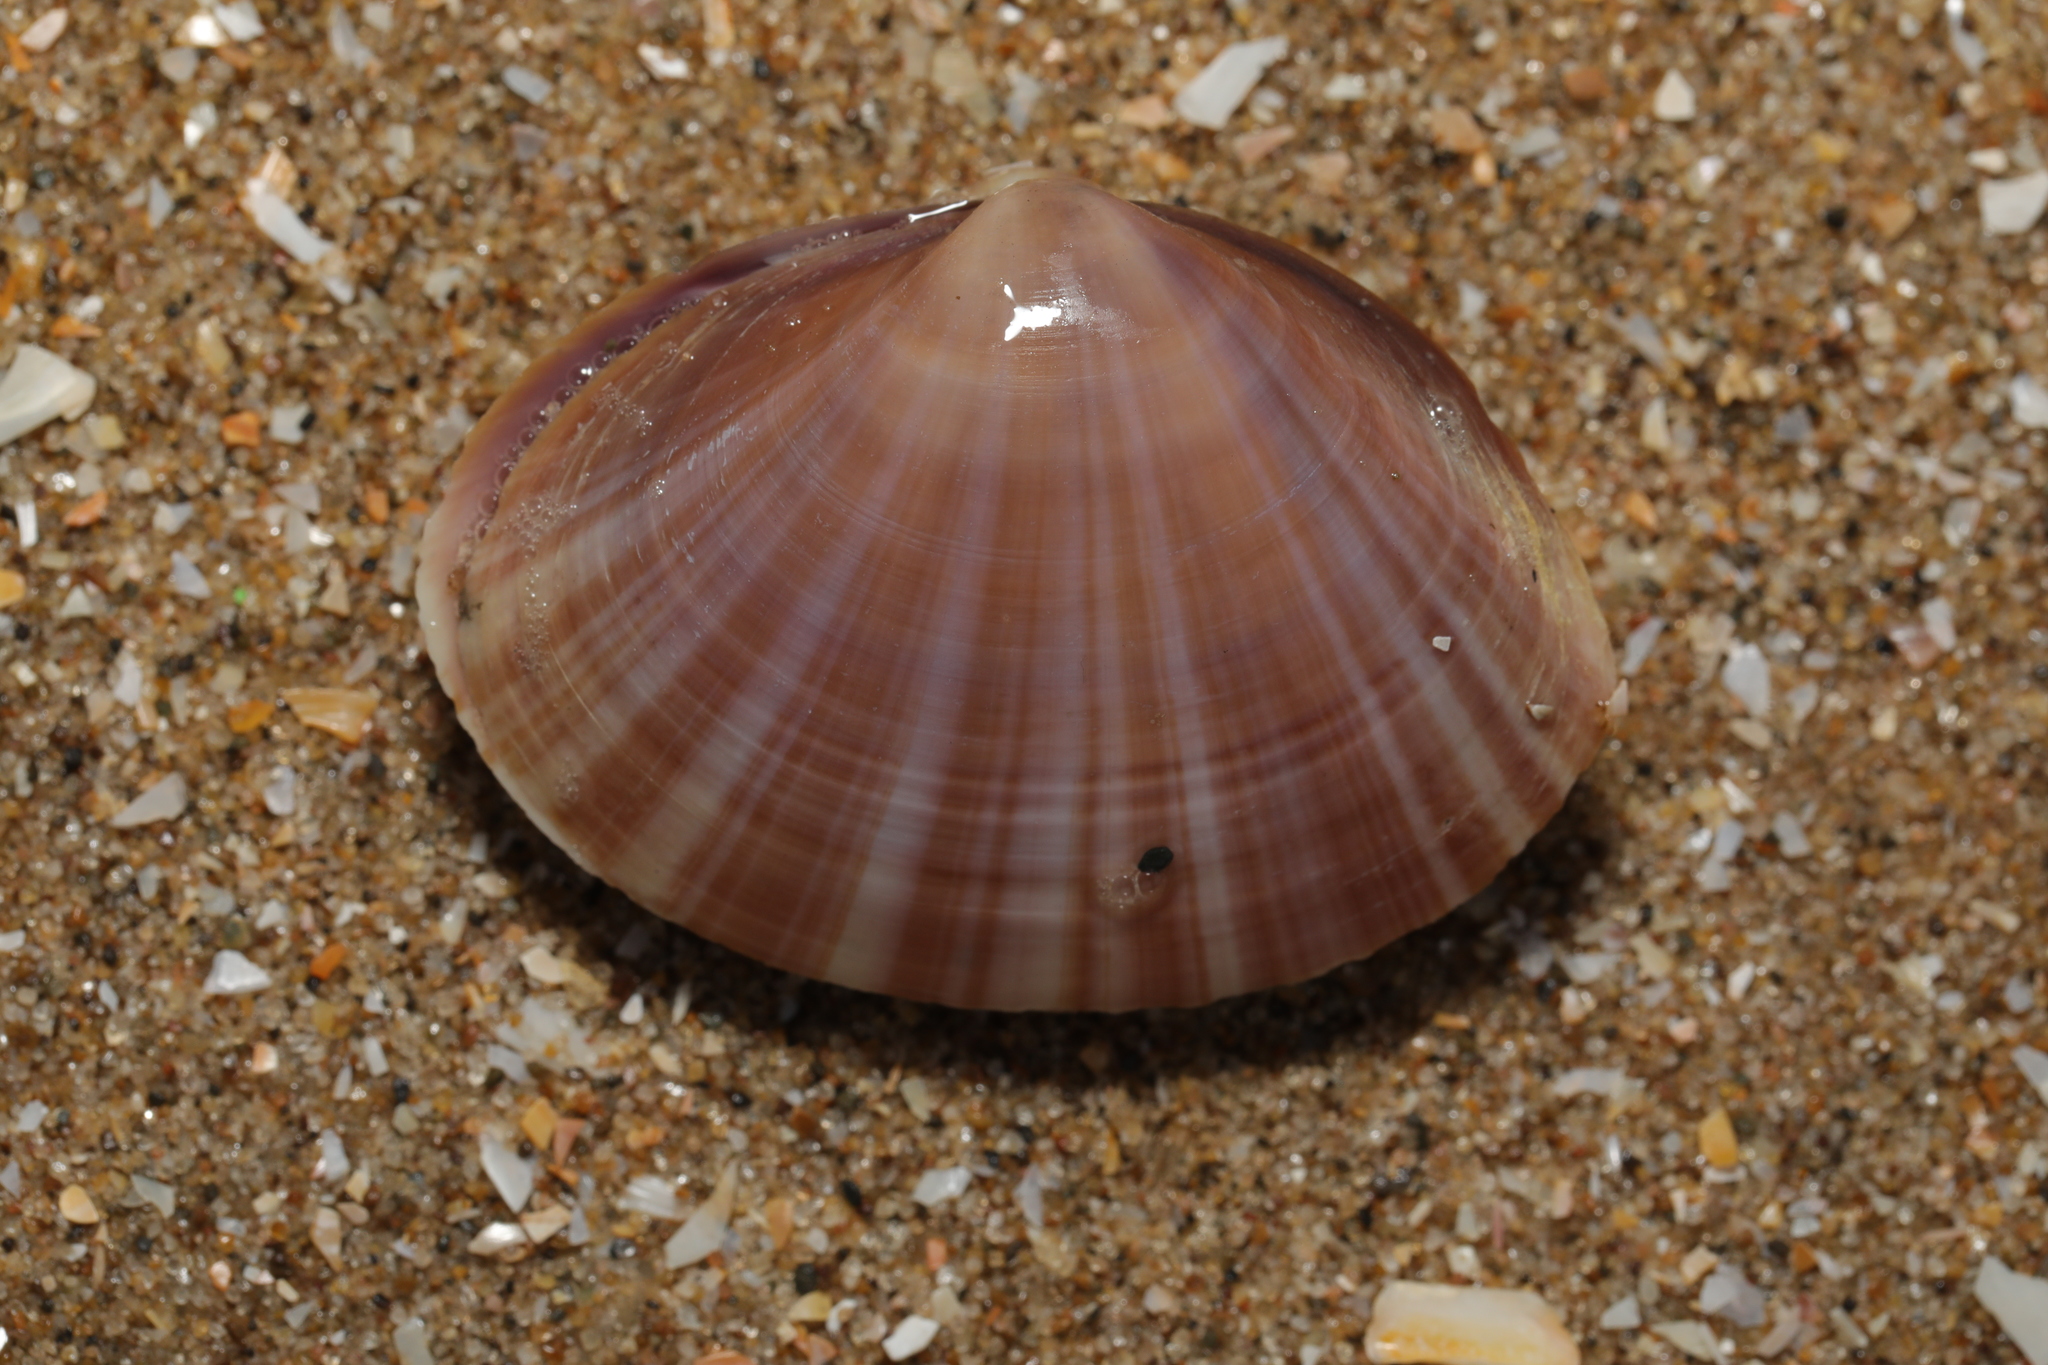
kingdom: Animalia
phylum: Mollusca
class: Bivalvia
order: Venerida
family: Mactridae
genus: Mactra
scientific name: Mactra stultorum
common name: Rayed trough shell
